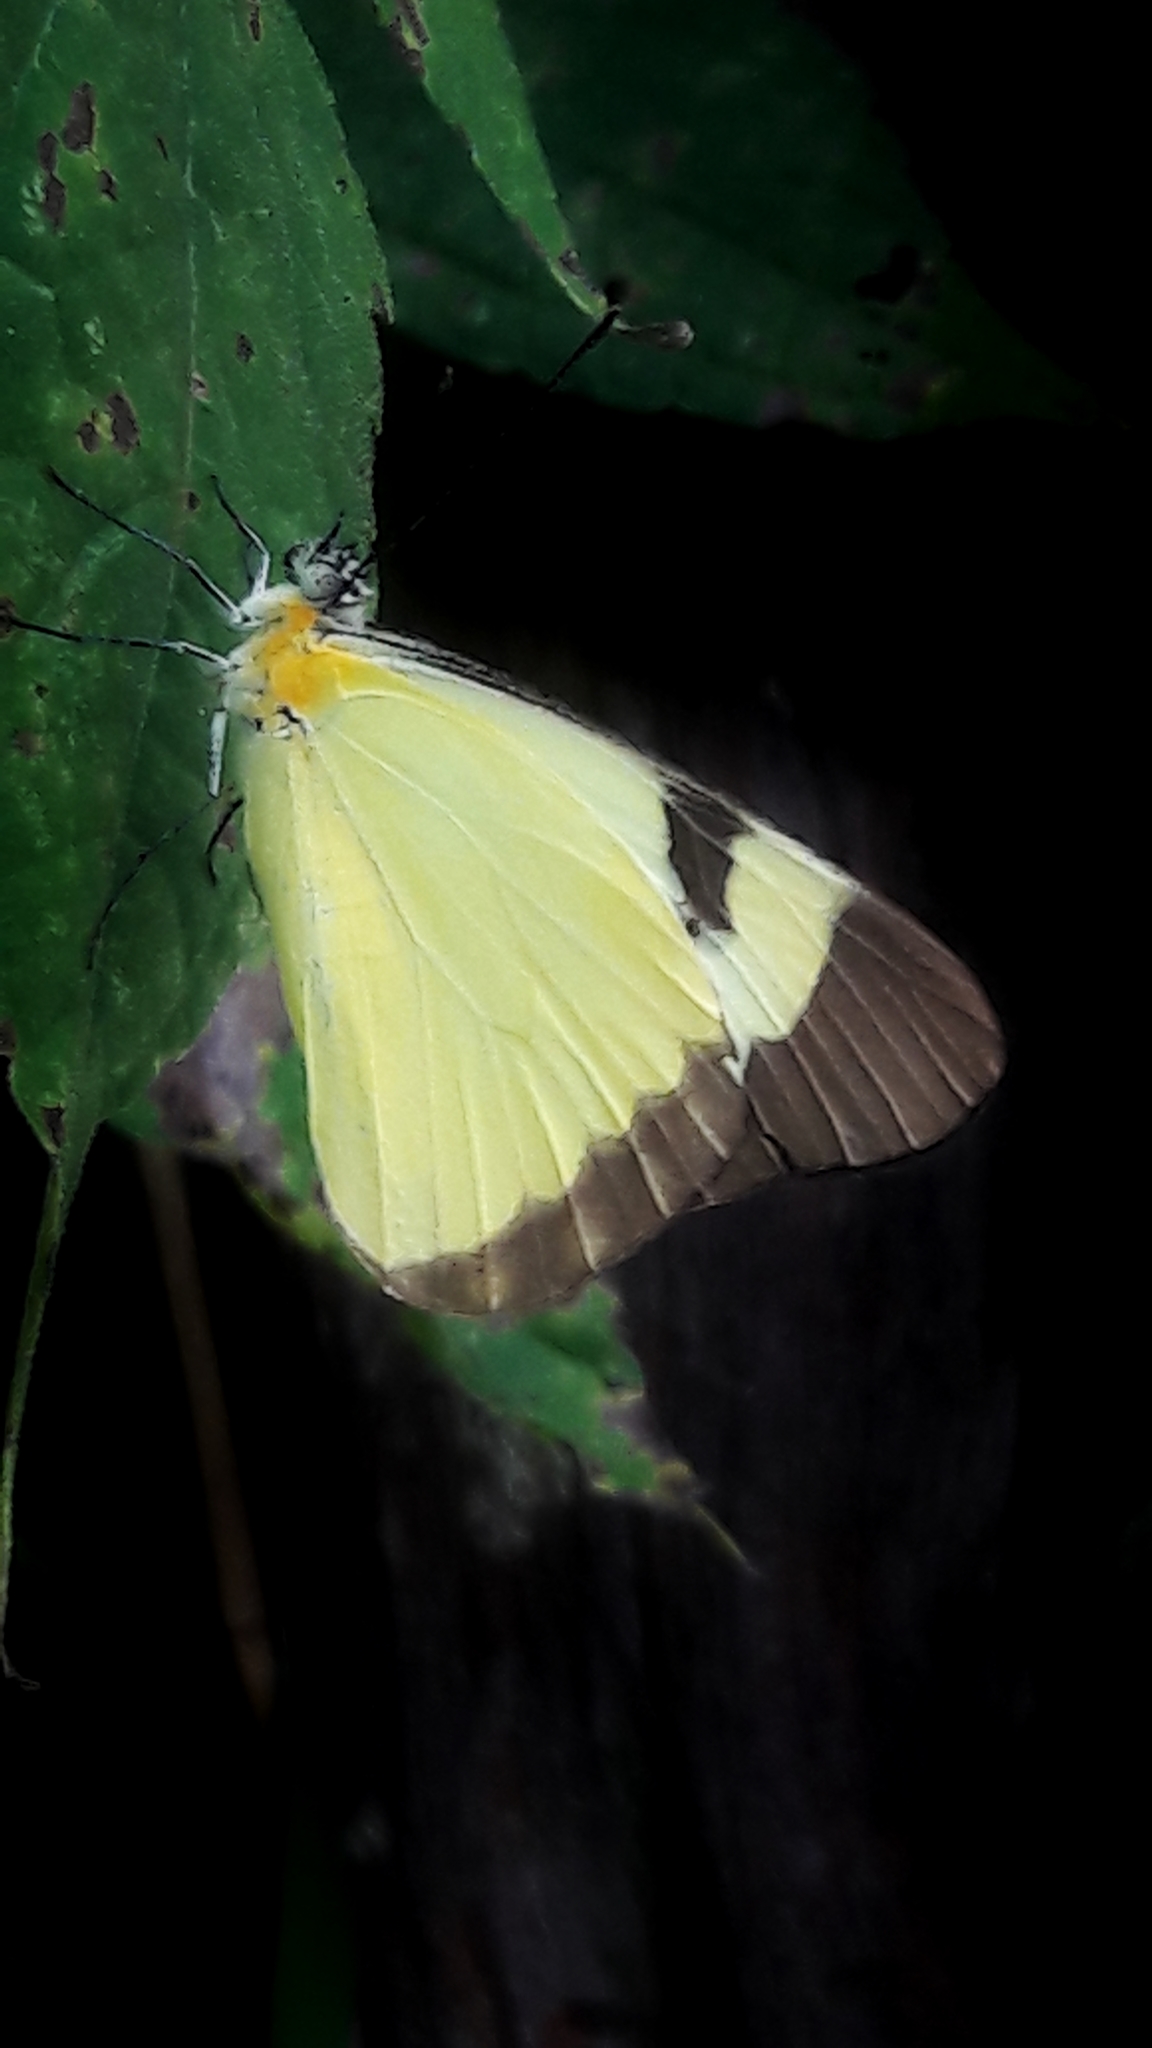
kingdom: Animalia
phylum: Arthropoda
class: Insecta
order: Lepidoptera
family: Pieridae
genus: Melete
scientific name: Melete lycimnia
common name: Common melwhite
